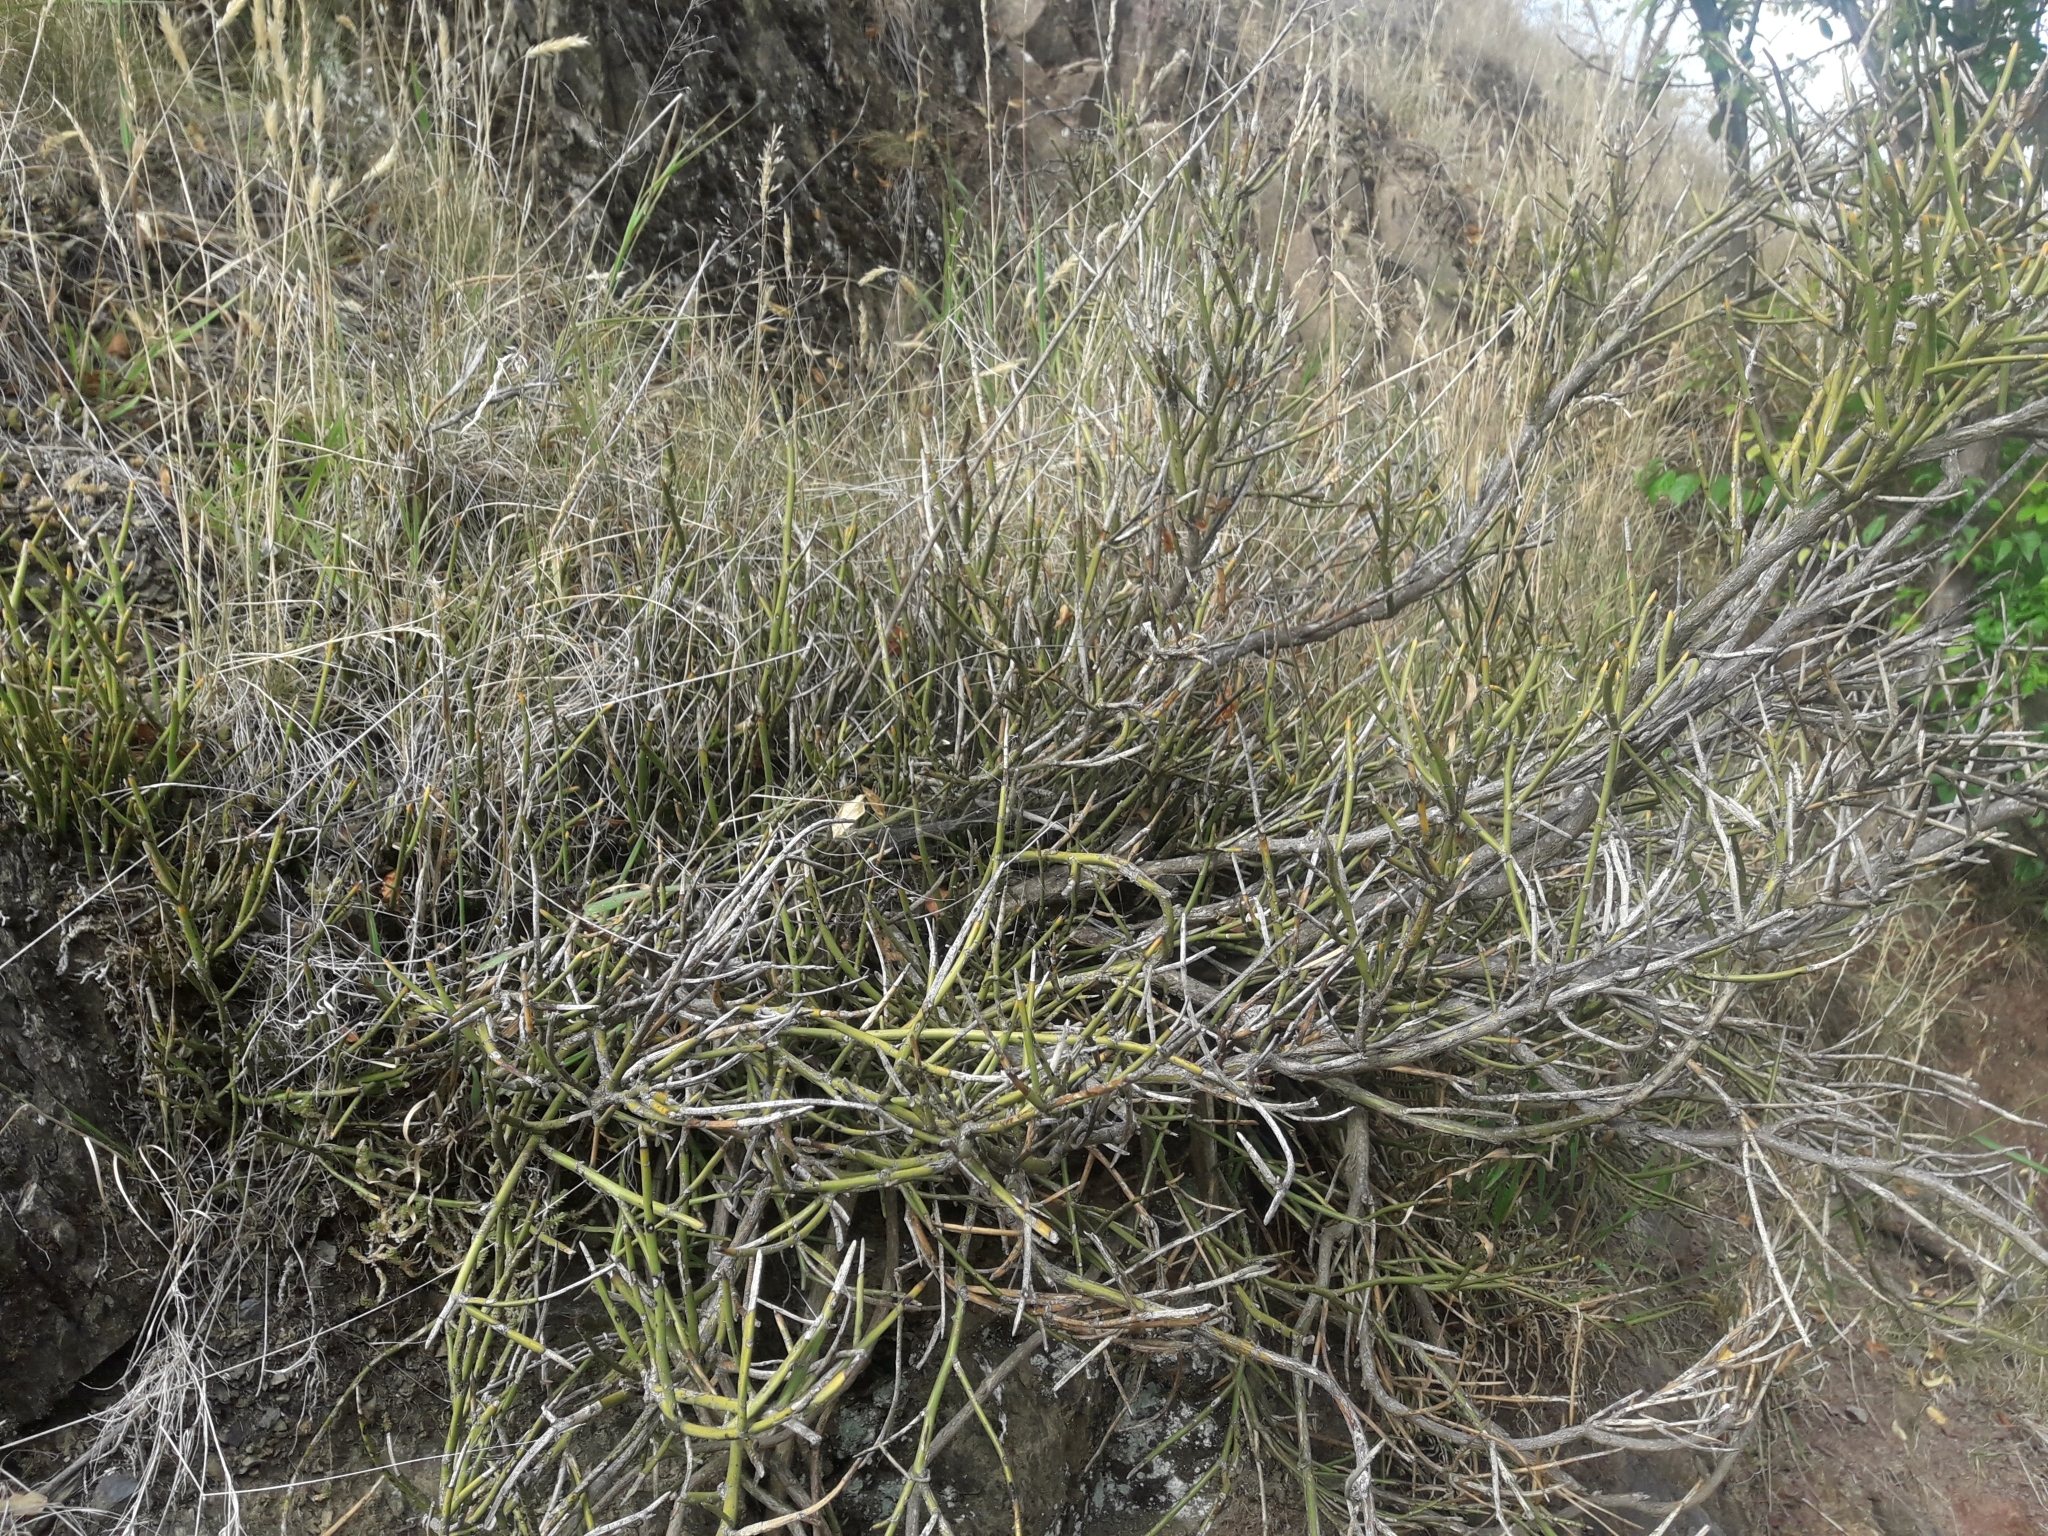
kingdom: Plantae
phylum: Tracheophyta
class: Magnoliopsida
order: Fabales
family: Fabaceae
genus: Carmichaelia
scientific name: Carmichaelia petriei
